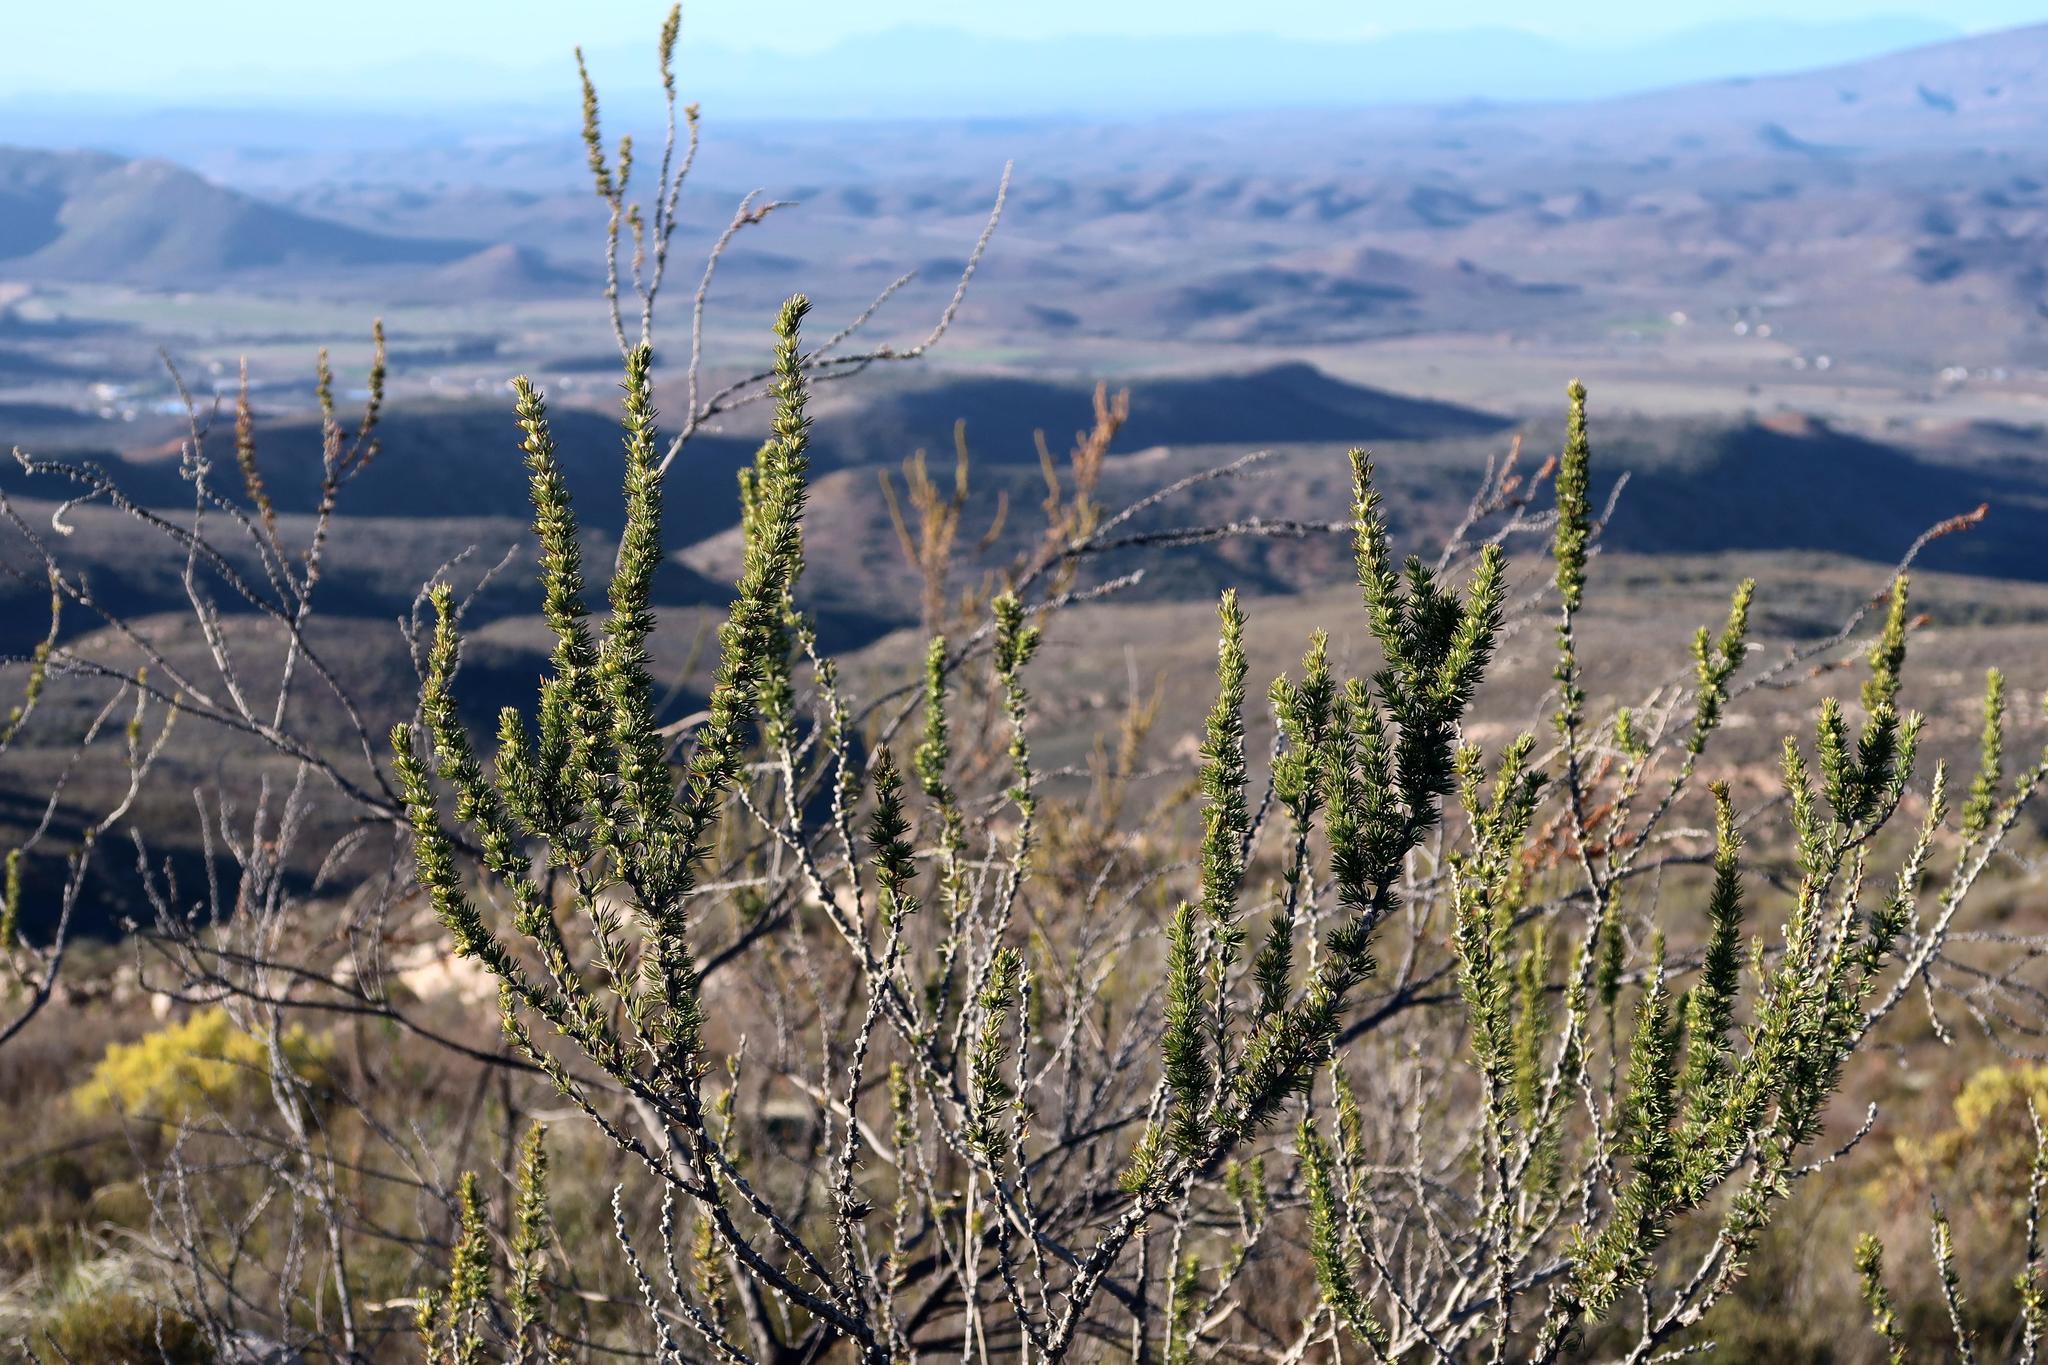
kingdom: Plantae
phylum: Tracheophyta
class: Magnoliopsida
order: Fabales
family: Fabaceae
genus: Aspalathus
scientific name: Aspalathus sceptrumaureum
